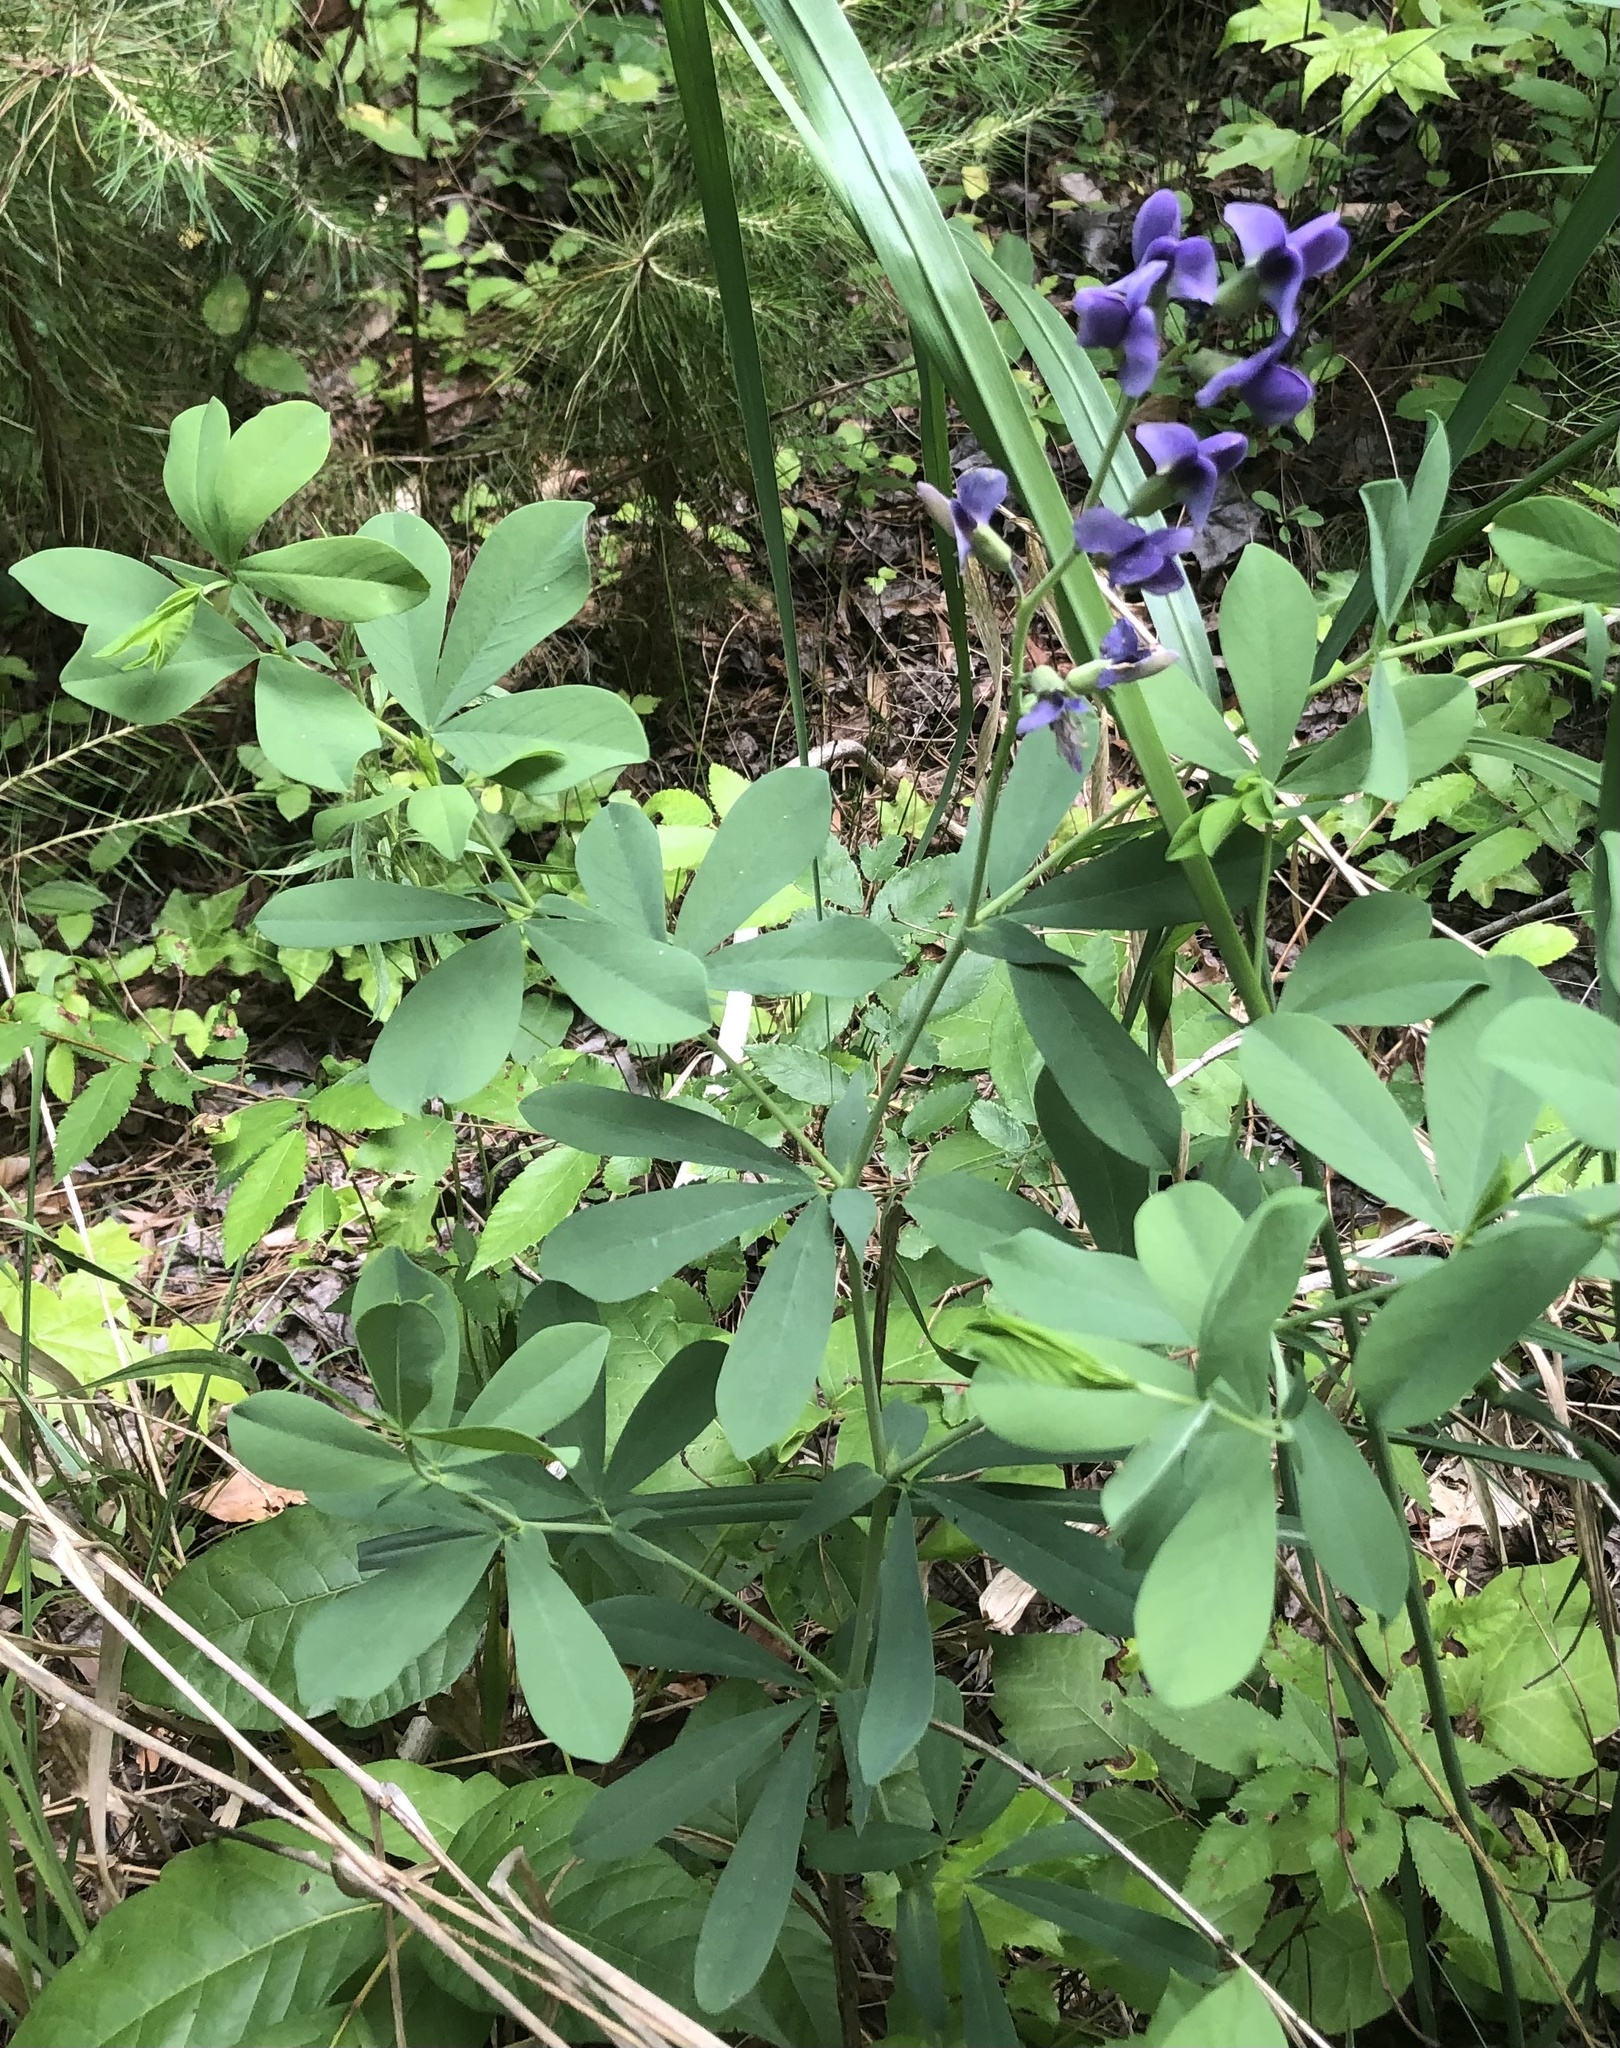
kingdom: Plantae
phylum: Tracheophyta
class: Magnoliopsida
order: Fabales
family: Fabaceae
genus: Baptisia
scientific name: Baptisia australis
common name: Blue false indigo
